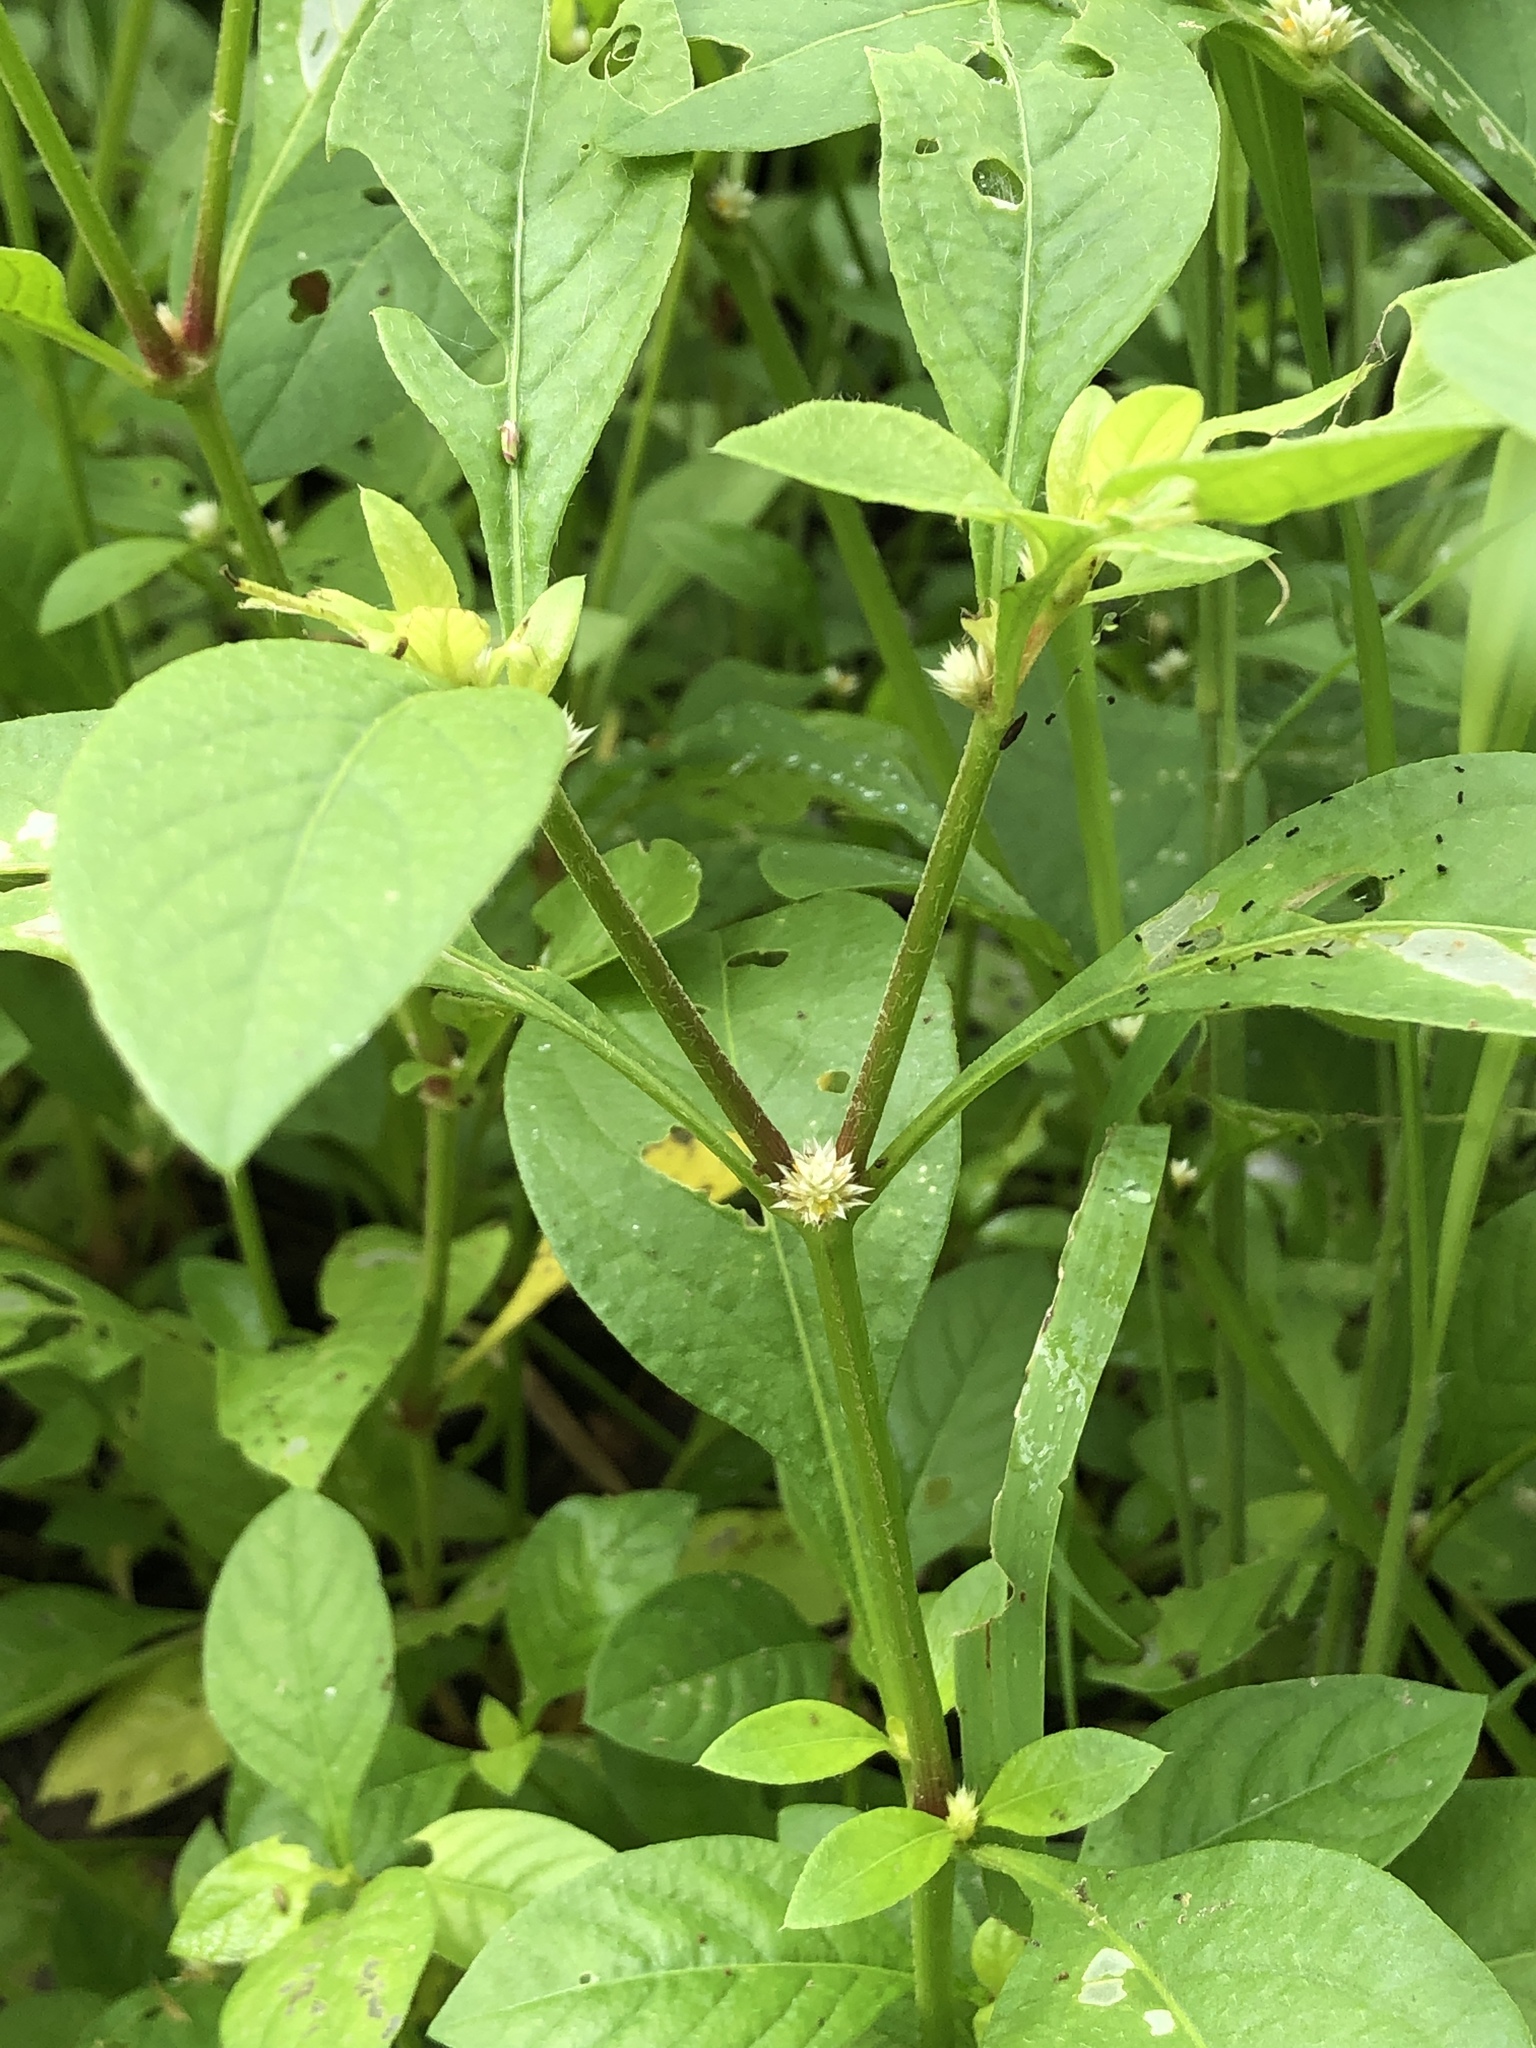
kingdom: Plantae
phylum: Tracheophyta
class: Magnoliopsida
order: Caryophyllales
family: Amaranthaceae
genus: Alternanthera
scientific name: Alternanthera ficoidea
